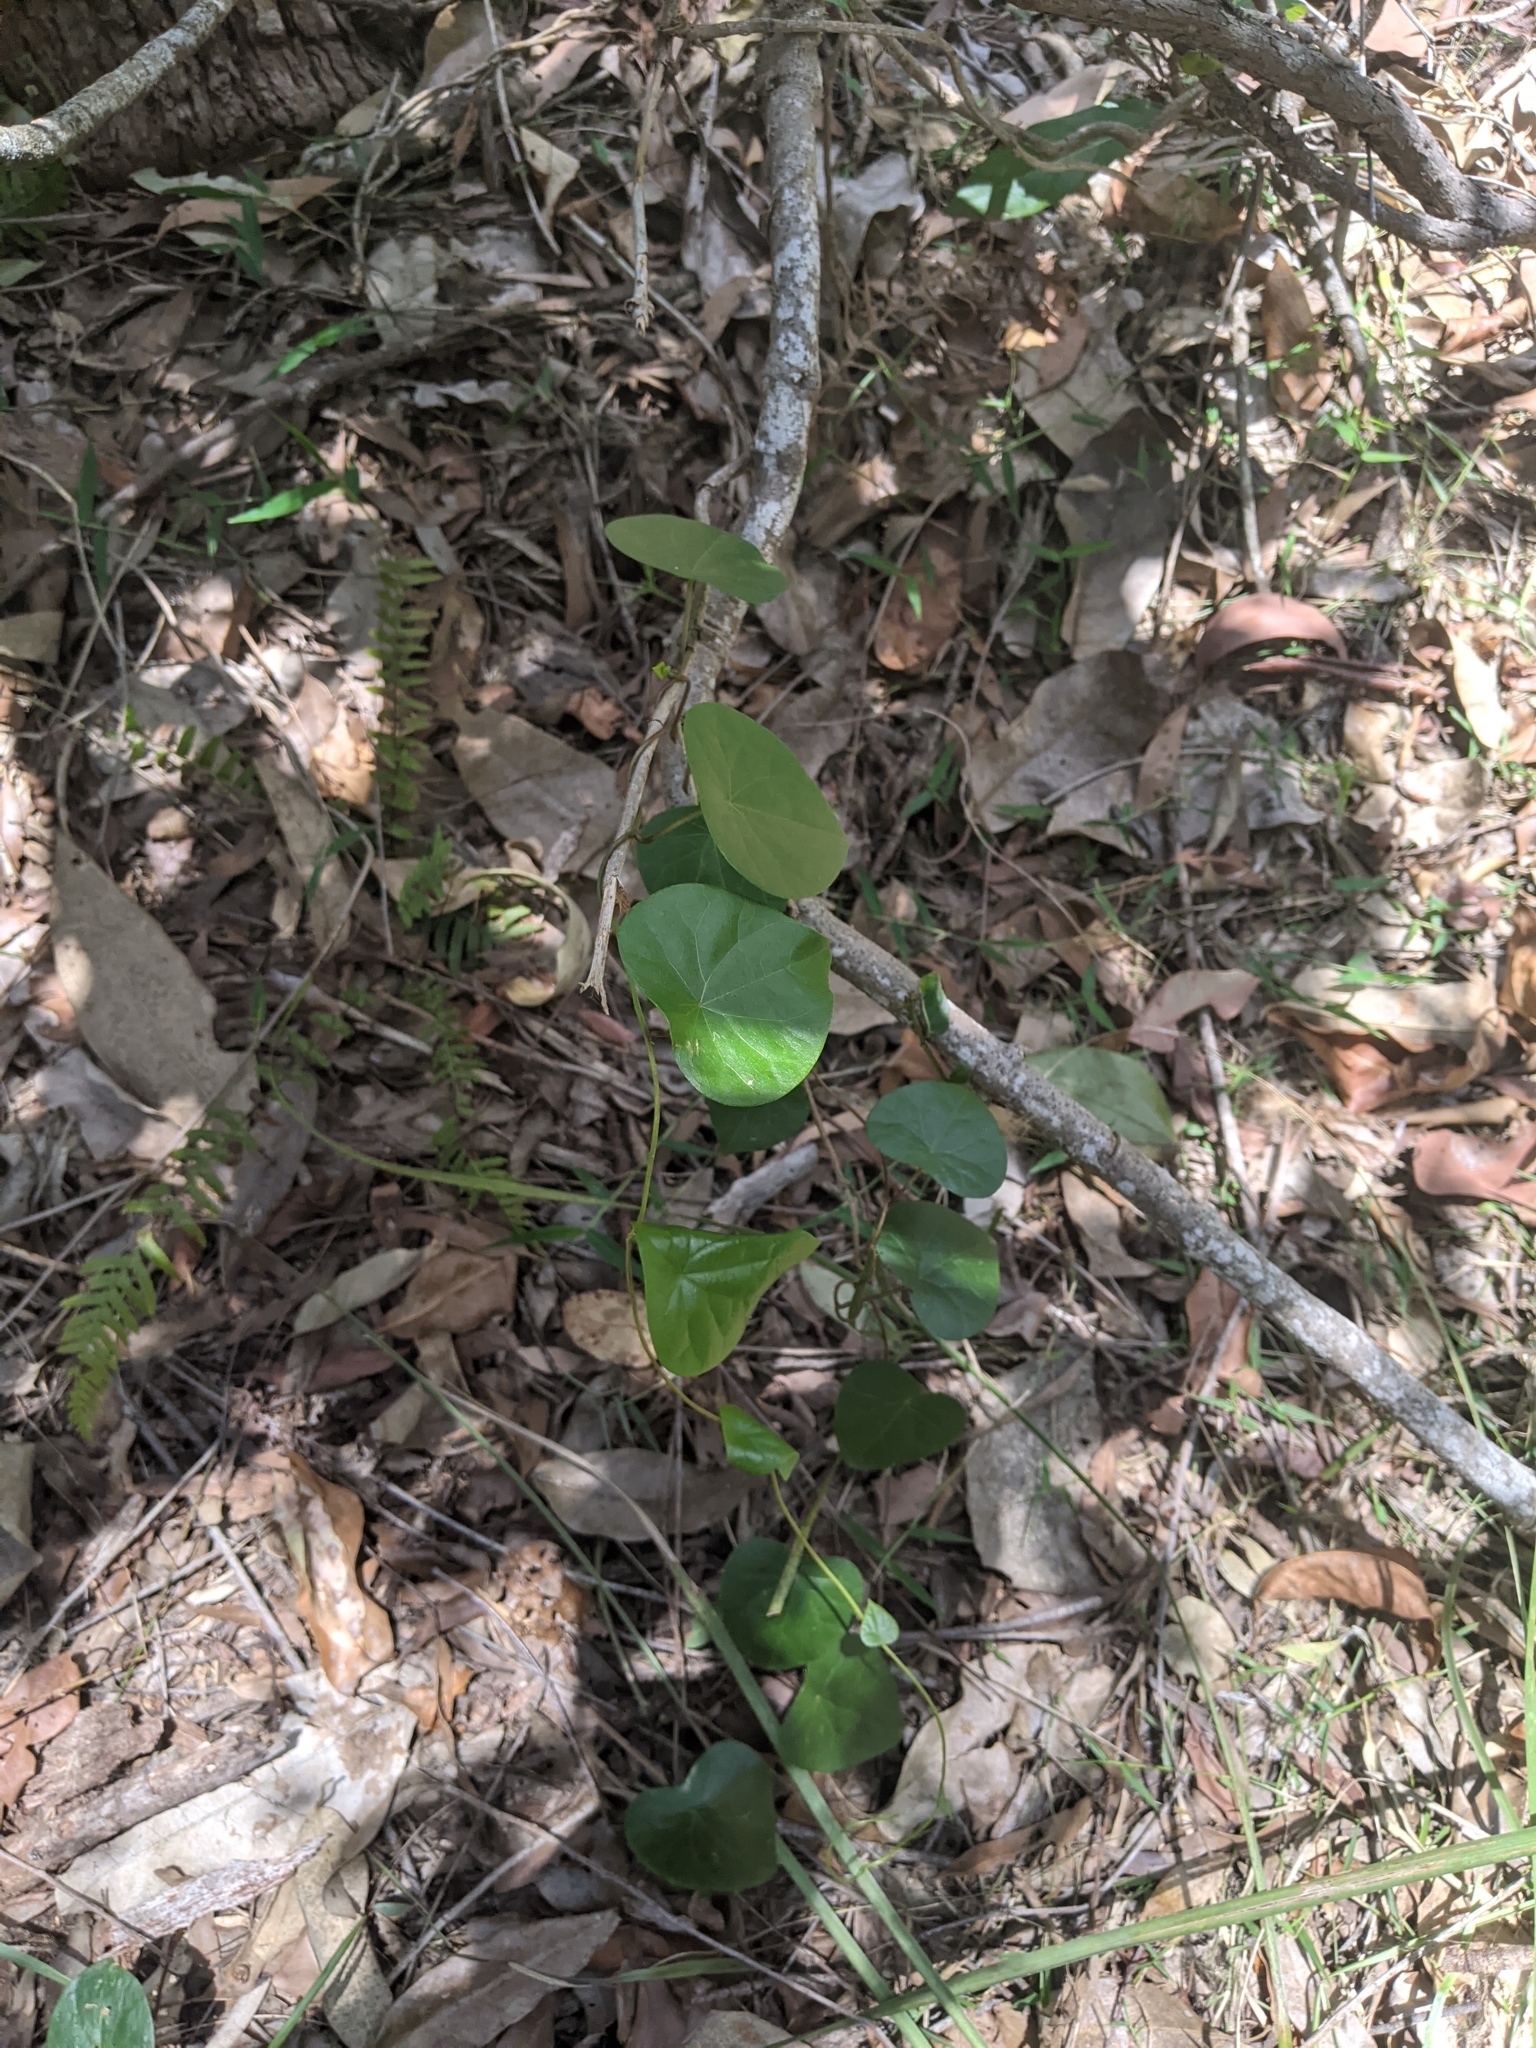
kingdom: Plantae
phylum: Tracheophyta
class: Magnoliopsida
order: Ranunculales
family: Menispermaceae
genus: Stephania
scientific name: Stephania japonica
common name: Snake vine
